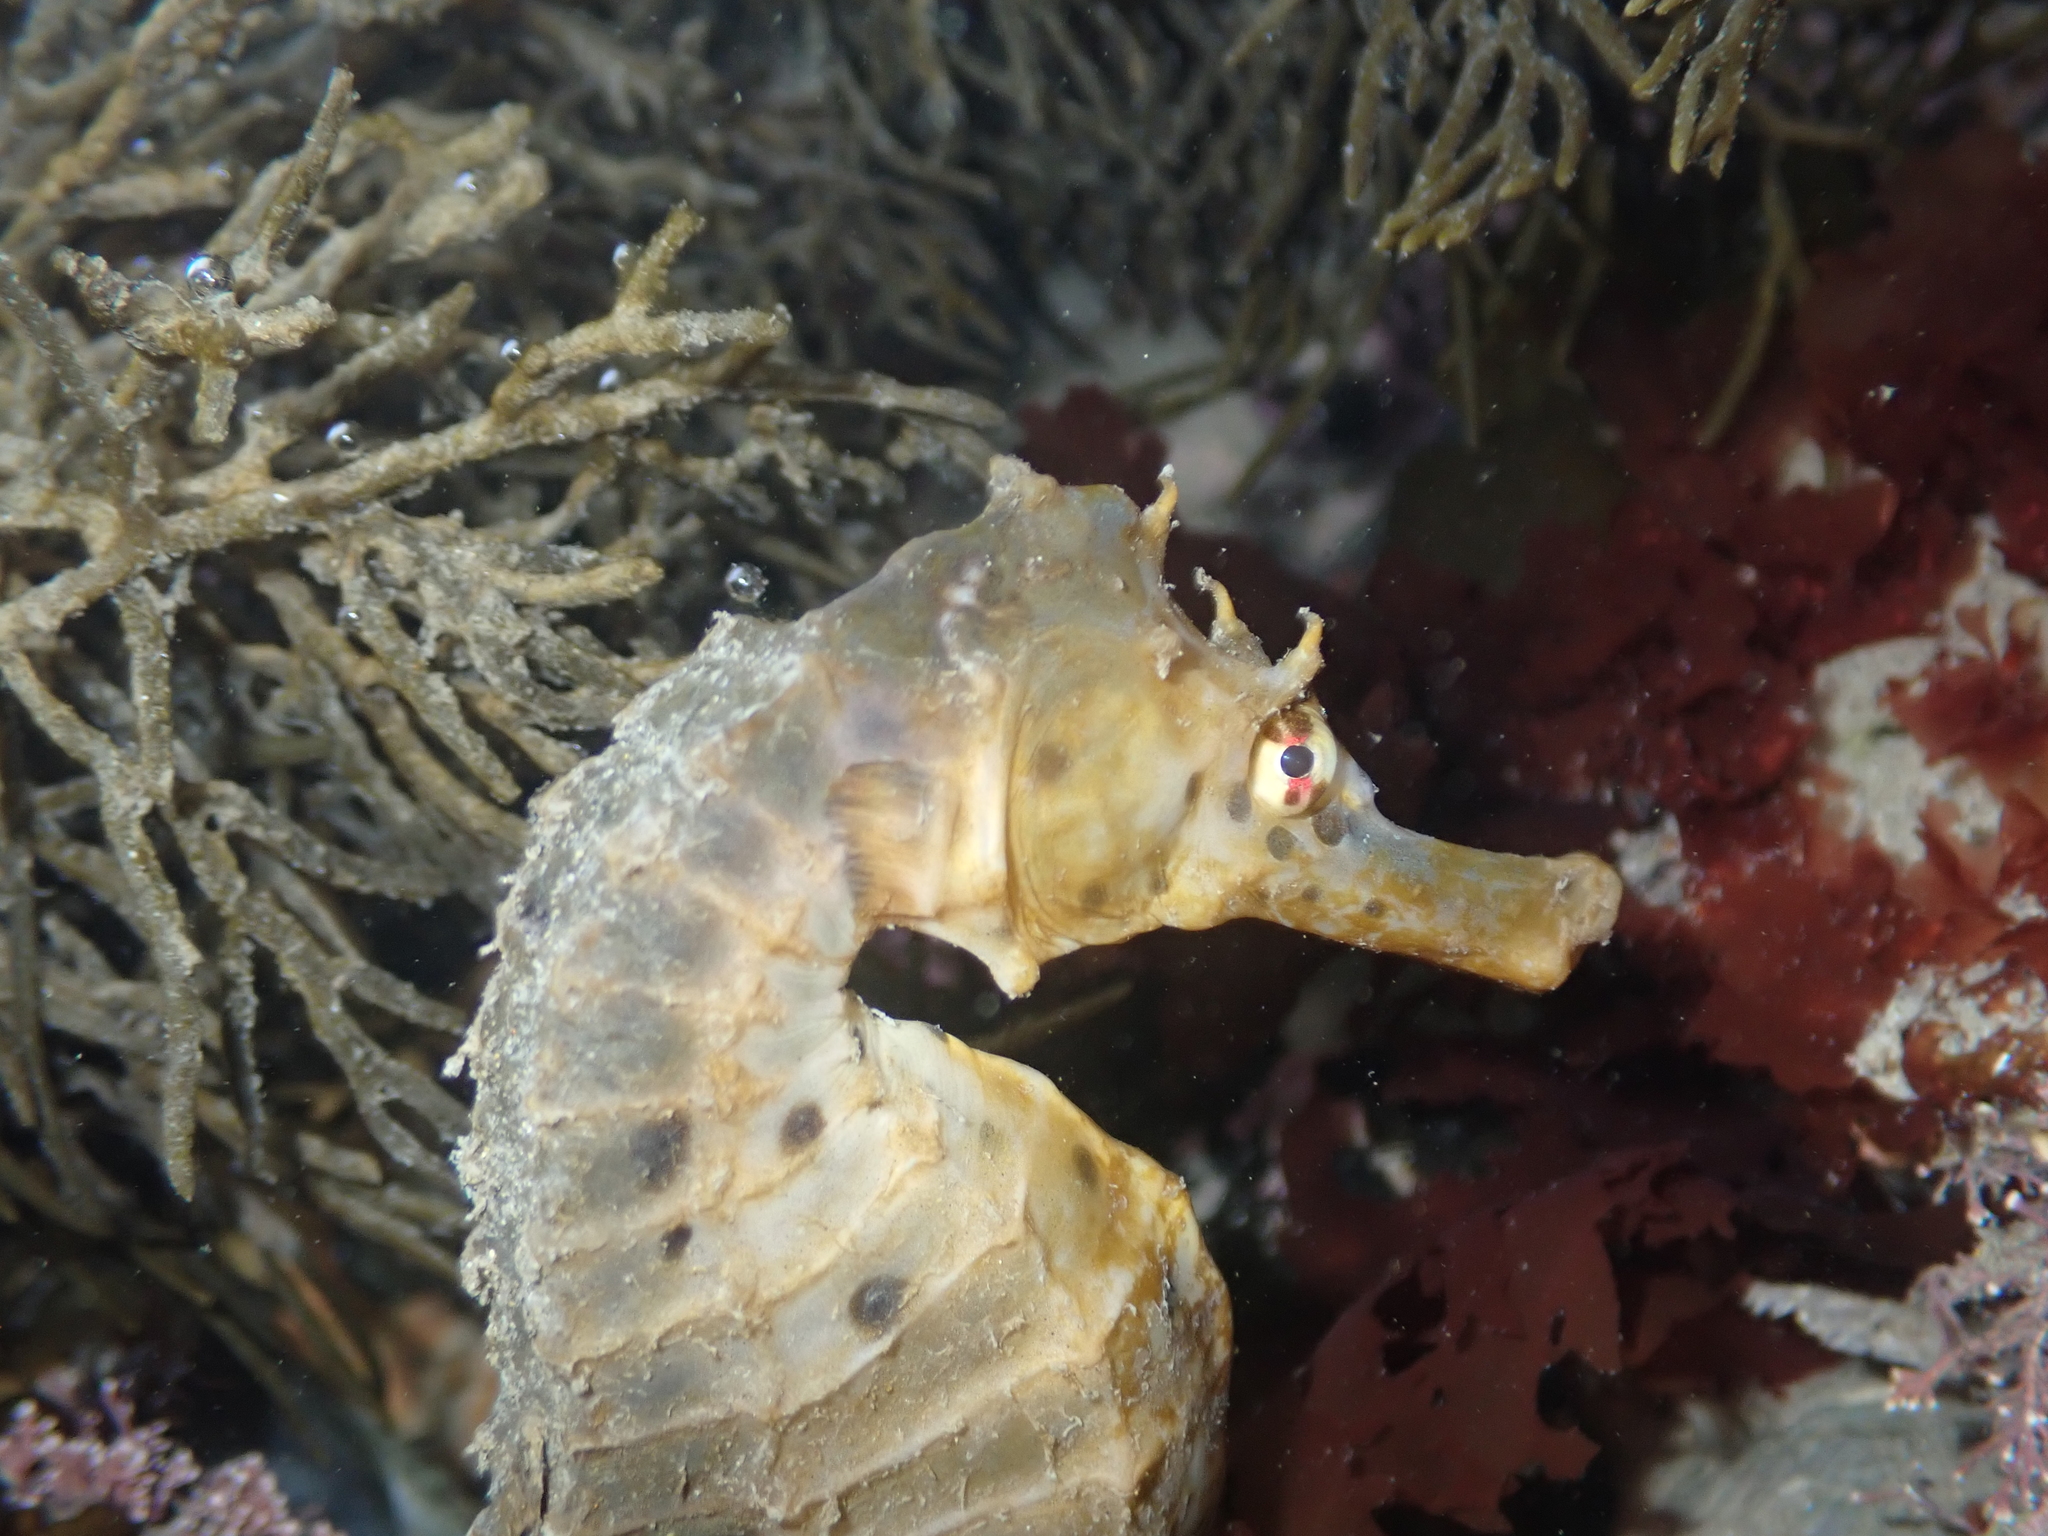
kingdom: Animalia
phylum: Chordata
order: Syngnathiformes
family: Syngnathidae
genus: Hippocampus
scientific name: Hippocampus abdominalis
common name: Big-belly seahorse
